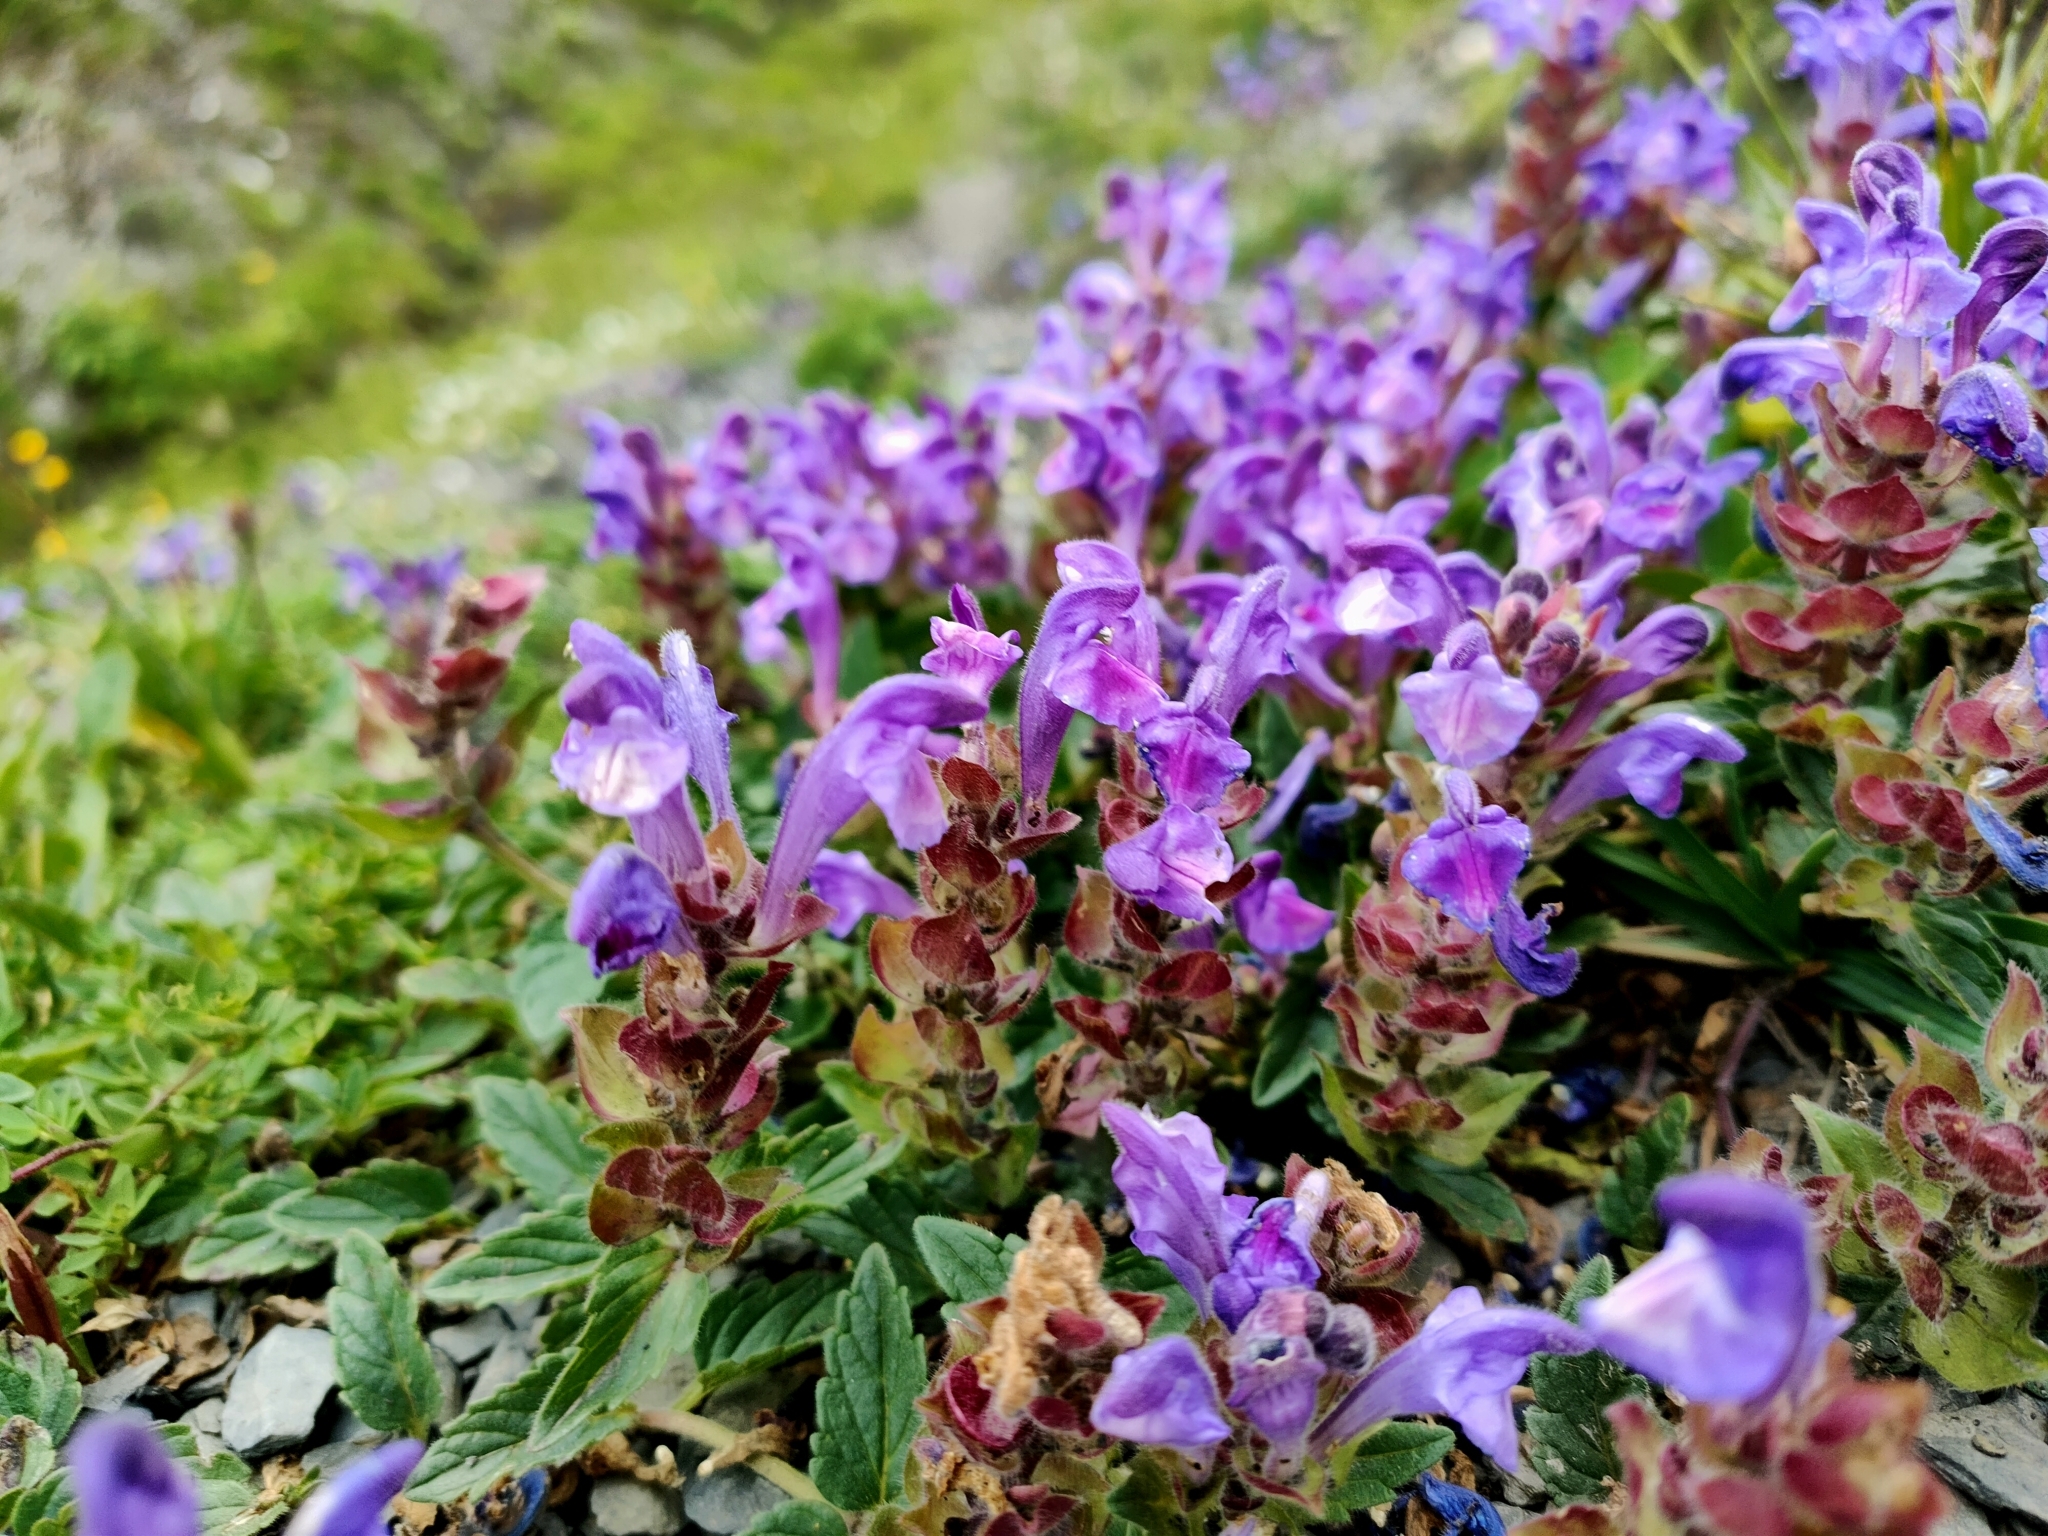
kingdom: Plantae
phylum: Tracheophyta
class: Magnoliopsida
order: Lamiales
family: Lamiaceae
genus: Scutellaria
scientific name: Scutellaria alpina
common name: Alpine scullcap
